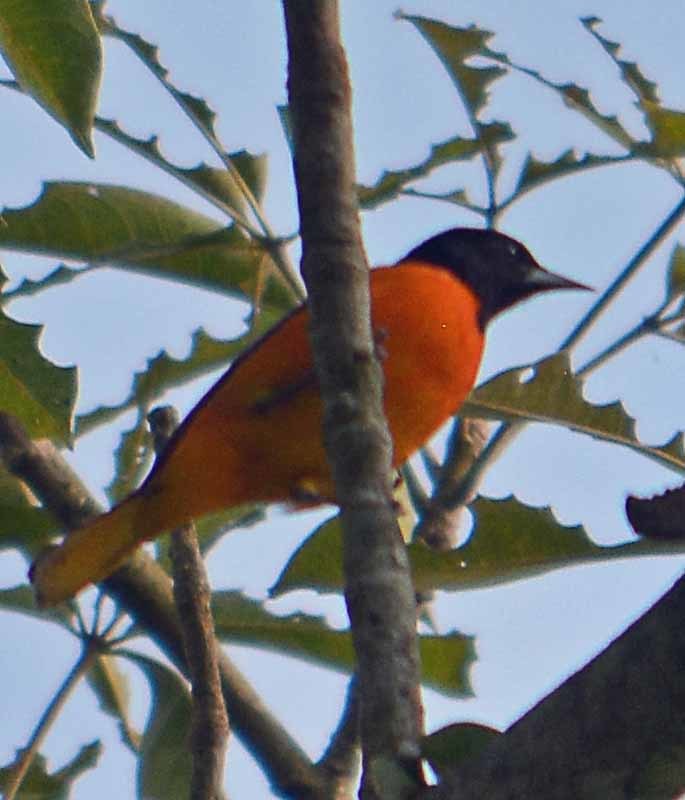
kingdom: Animalia
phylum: Chordata
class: Aves
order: Passeriformes
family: Icteridae
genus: Icterus
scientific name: Icterus galbula
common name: Baltimore oriole
